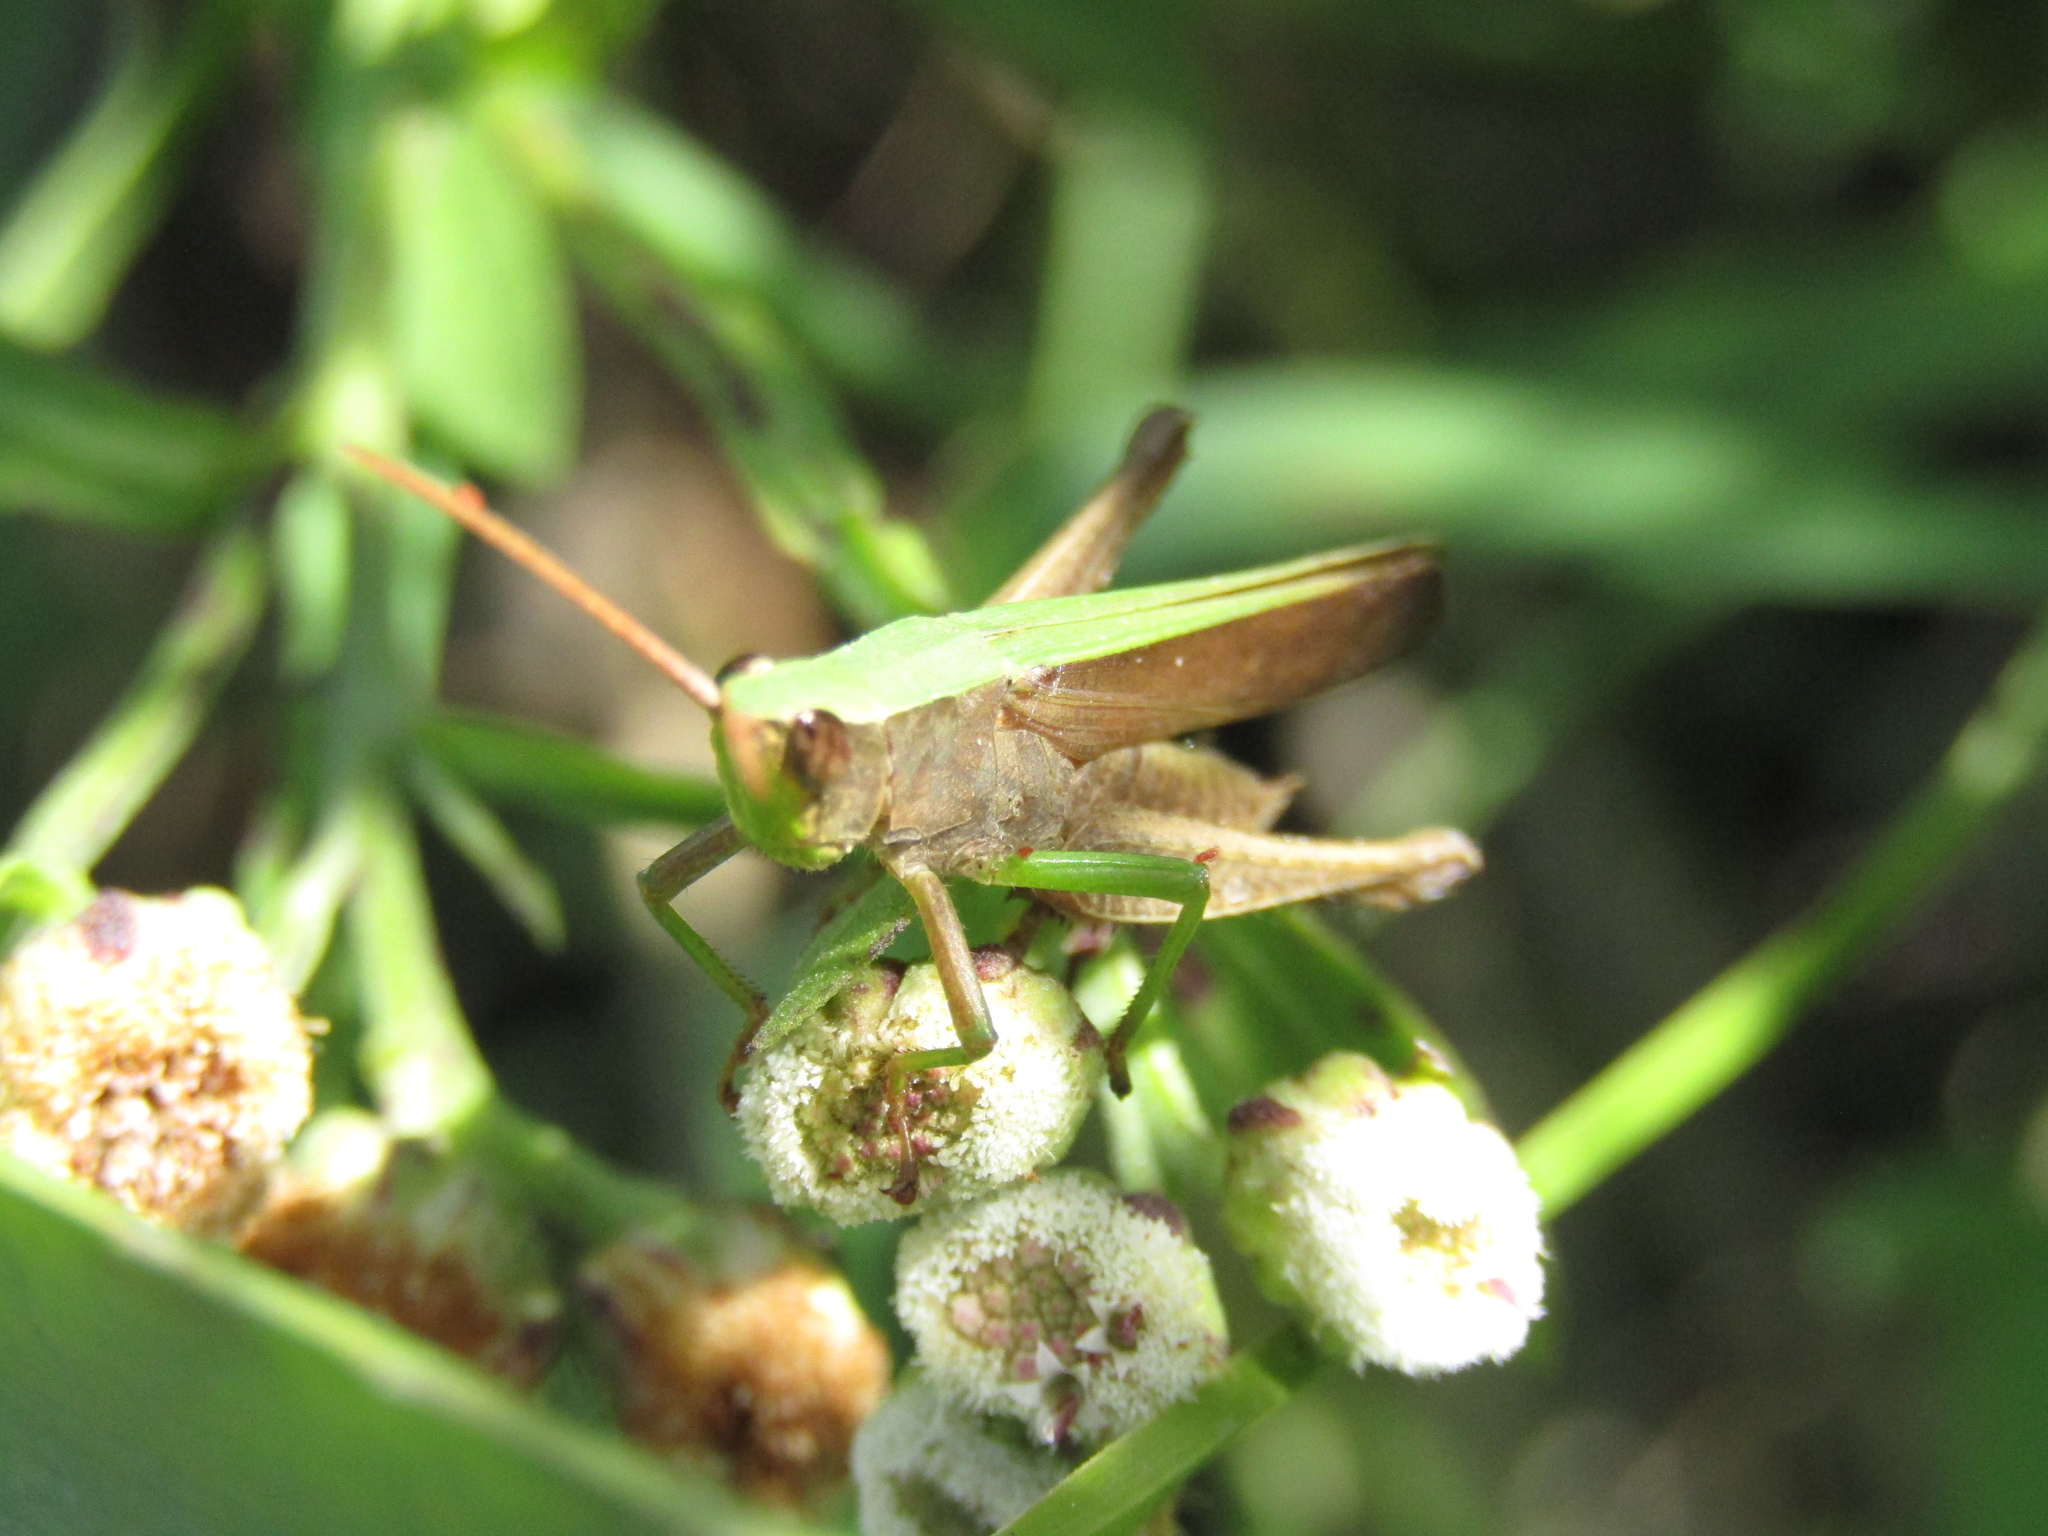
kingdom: Animalia
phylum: Arthropoda
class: Insecta
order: Orthoptera
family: Acrididae
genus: Metaleptea
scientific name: Metaleptea adspersa
